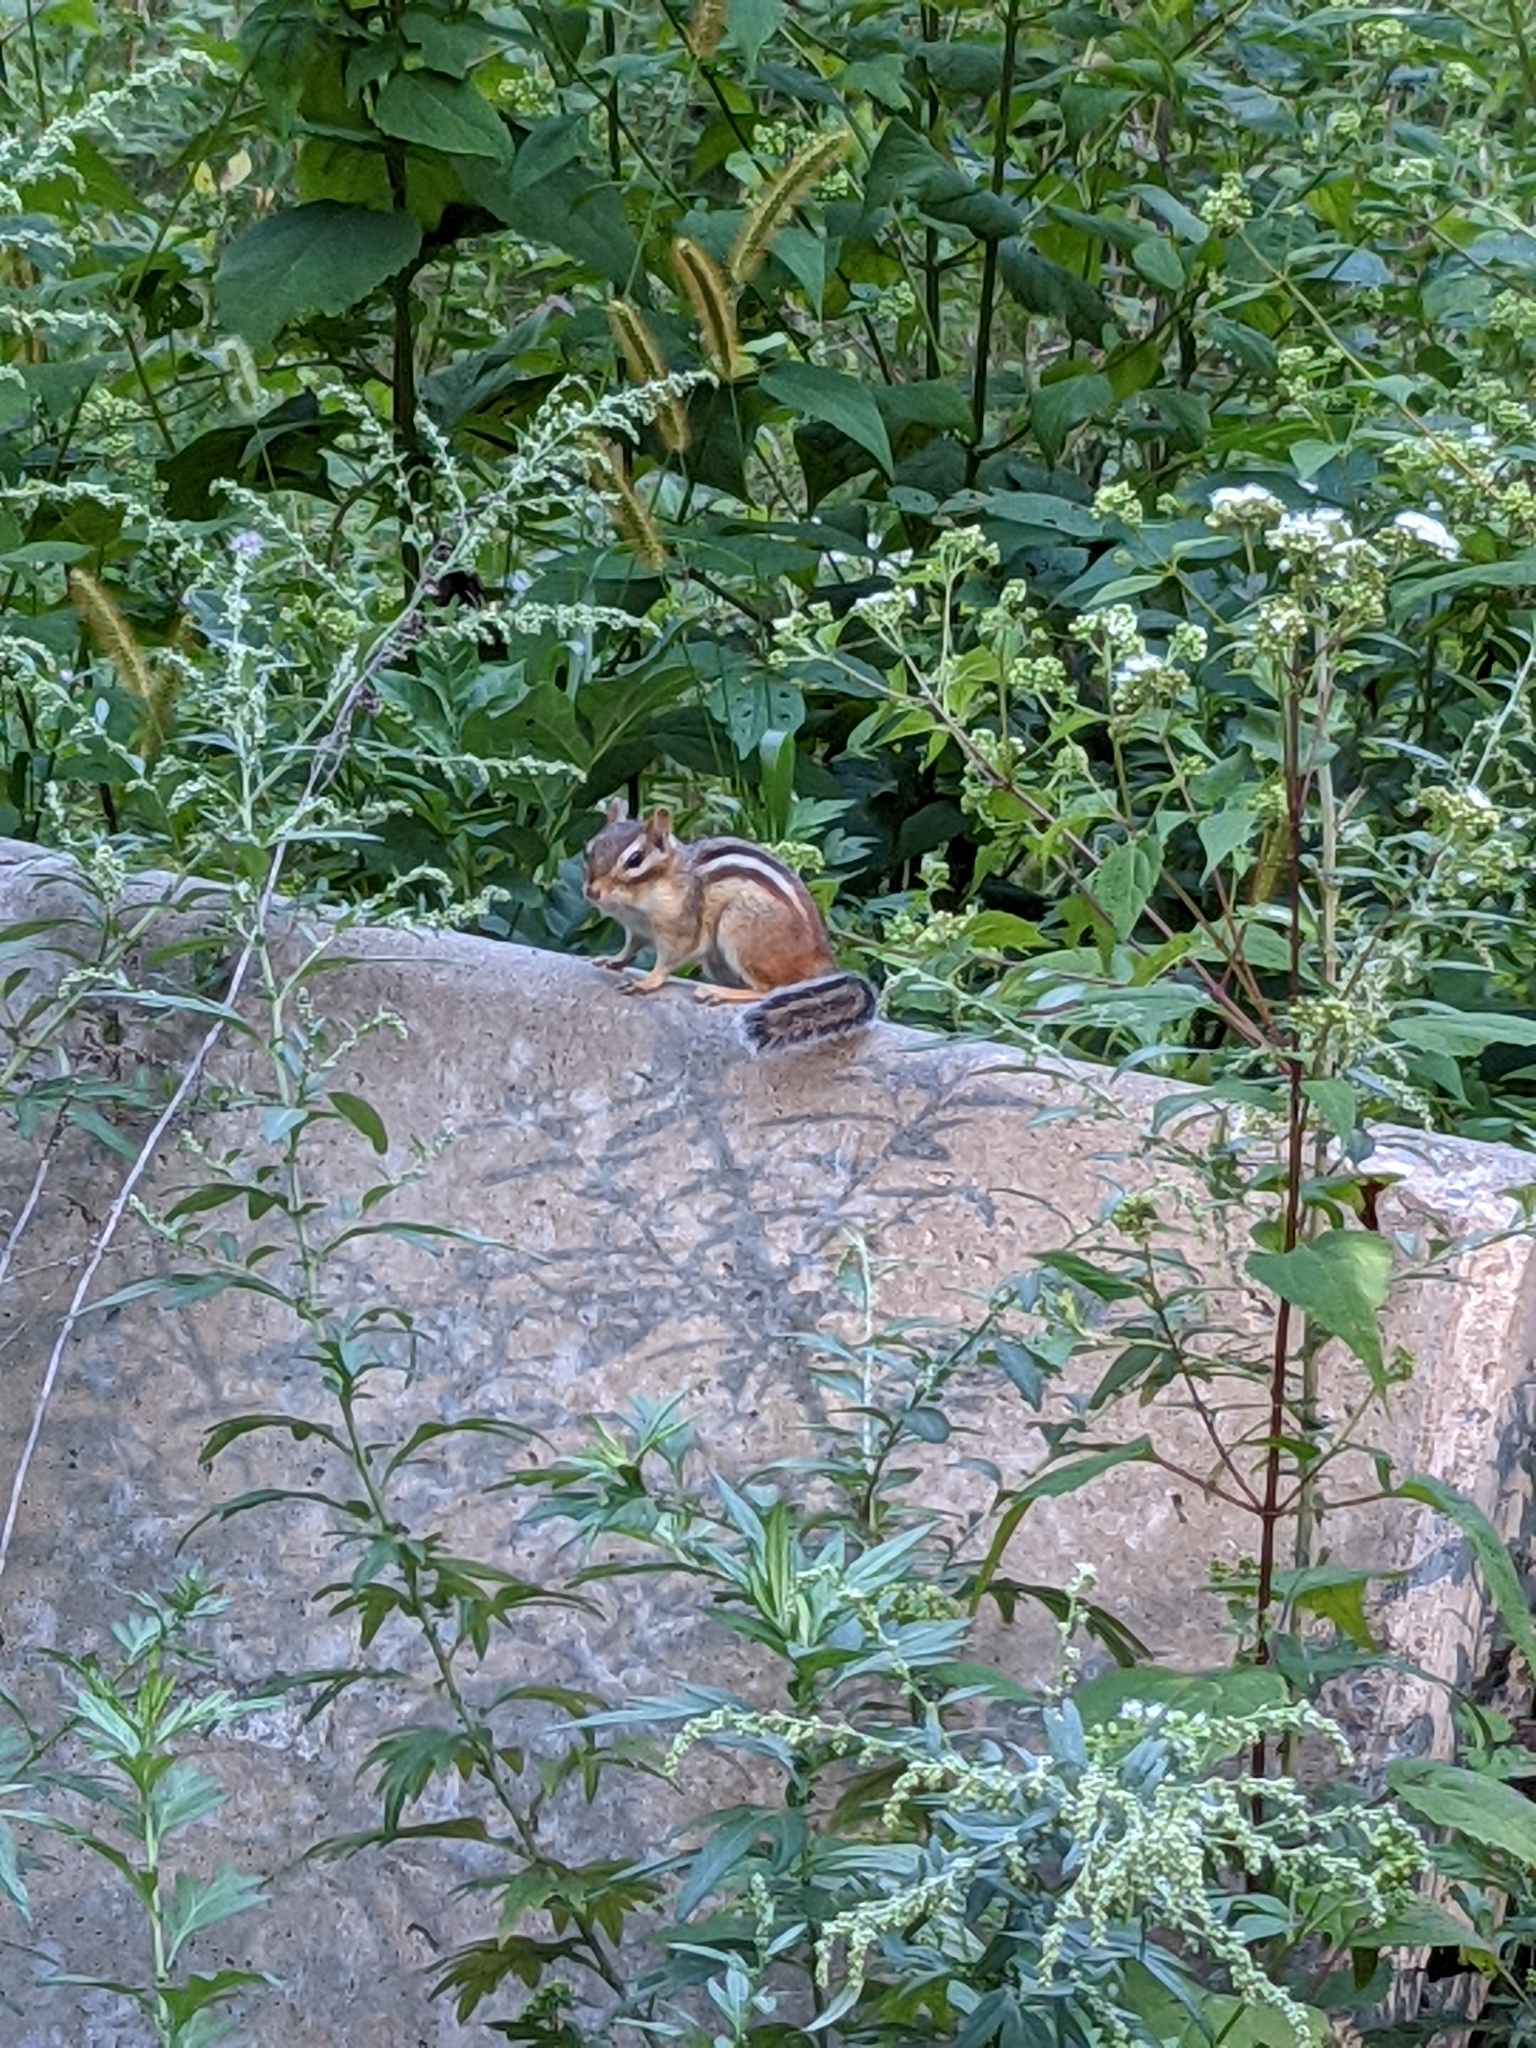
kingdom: Animalia
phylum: Chordata
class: Mammalia
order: Rodentia
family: Sciuridae
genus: Tamias
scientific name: Tamias striatus
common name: Eastern chipmunk
